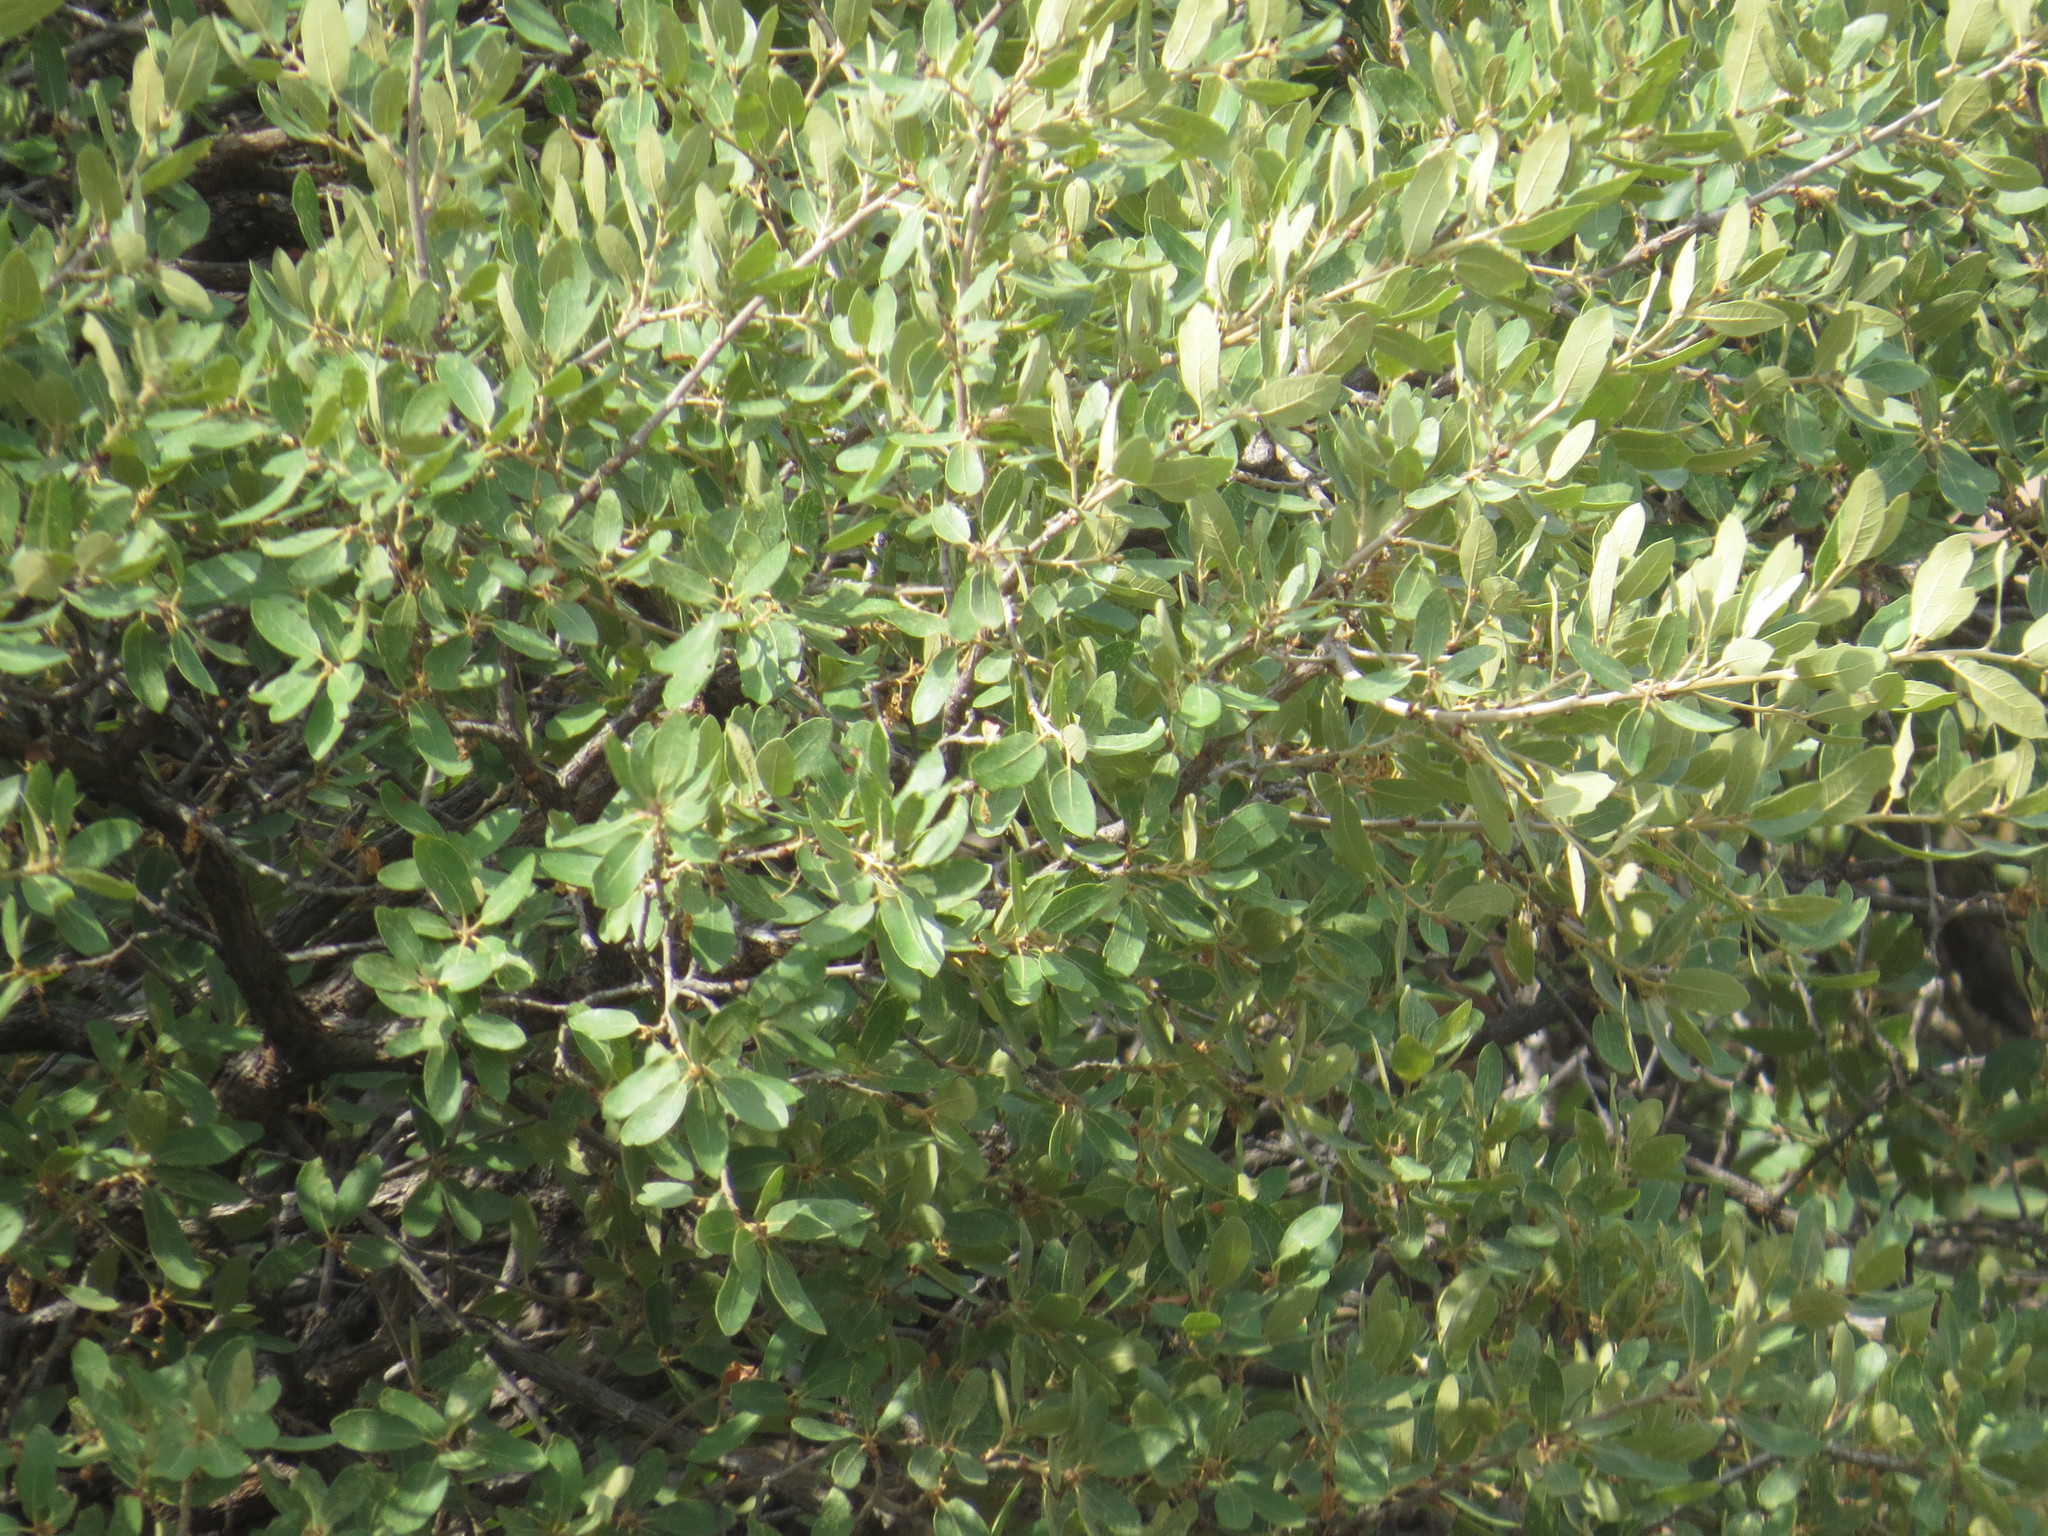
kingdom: Plantae
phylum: Tracheophyta
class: Magnoliopsida
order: Fagales
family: Fagaceae
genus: Quercus
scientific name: Quercus grisea
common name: Gray oak
